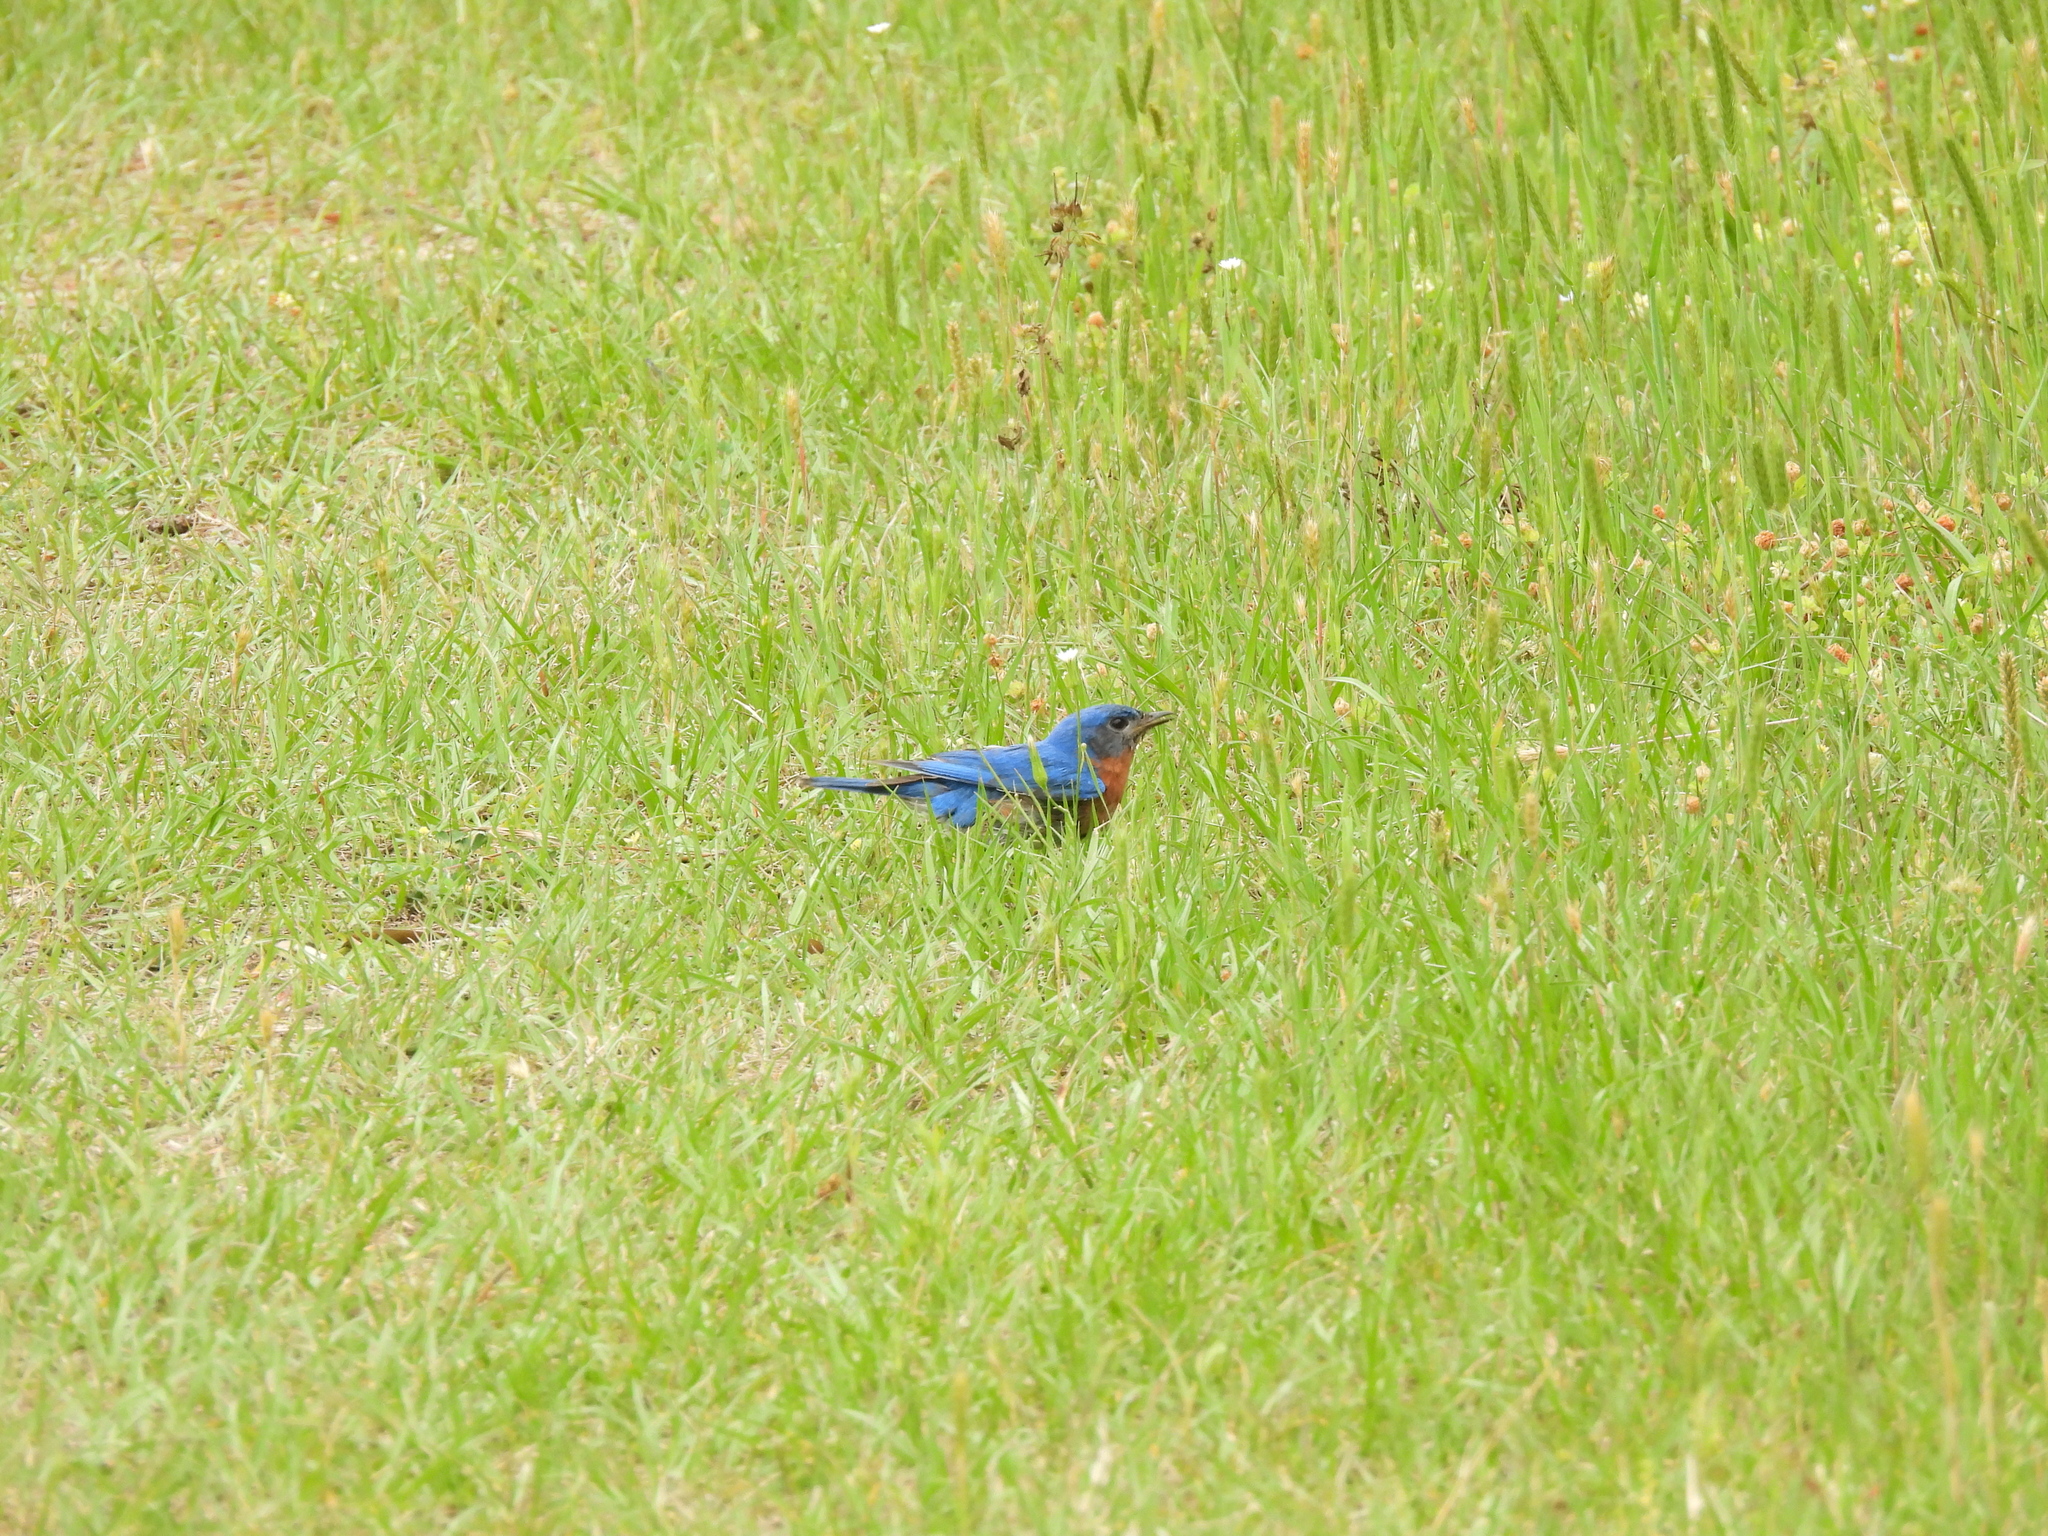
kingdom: Animalia
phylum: Chordata
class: Aves
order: Passeriformes
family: Turdidae
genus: Sialia
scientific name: Sialia sialis
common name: Eastern bluebird
